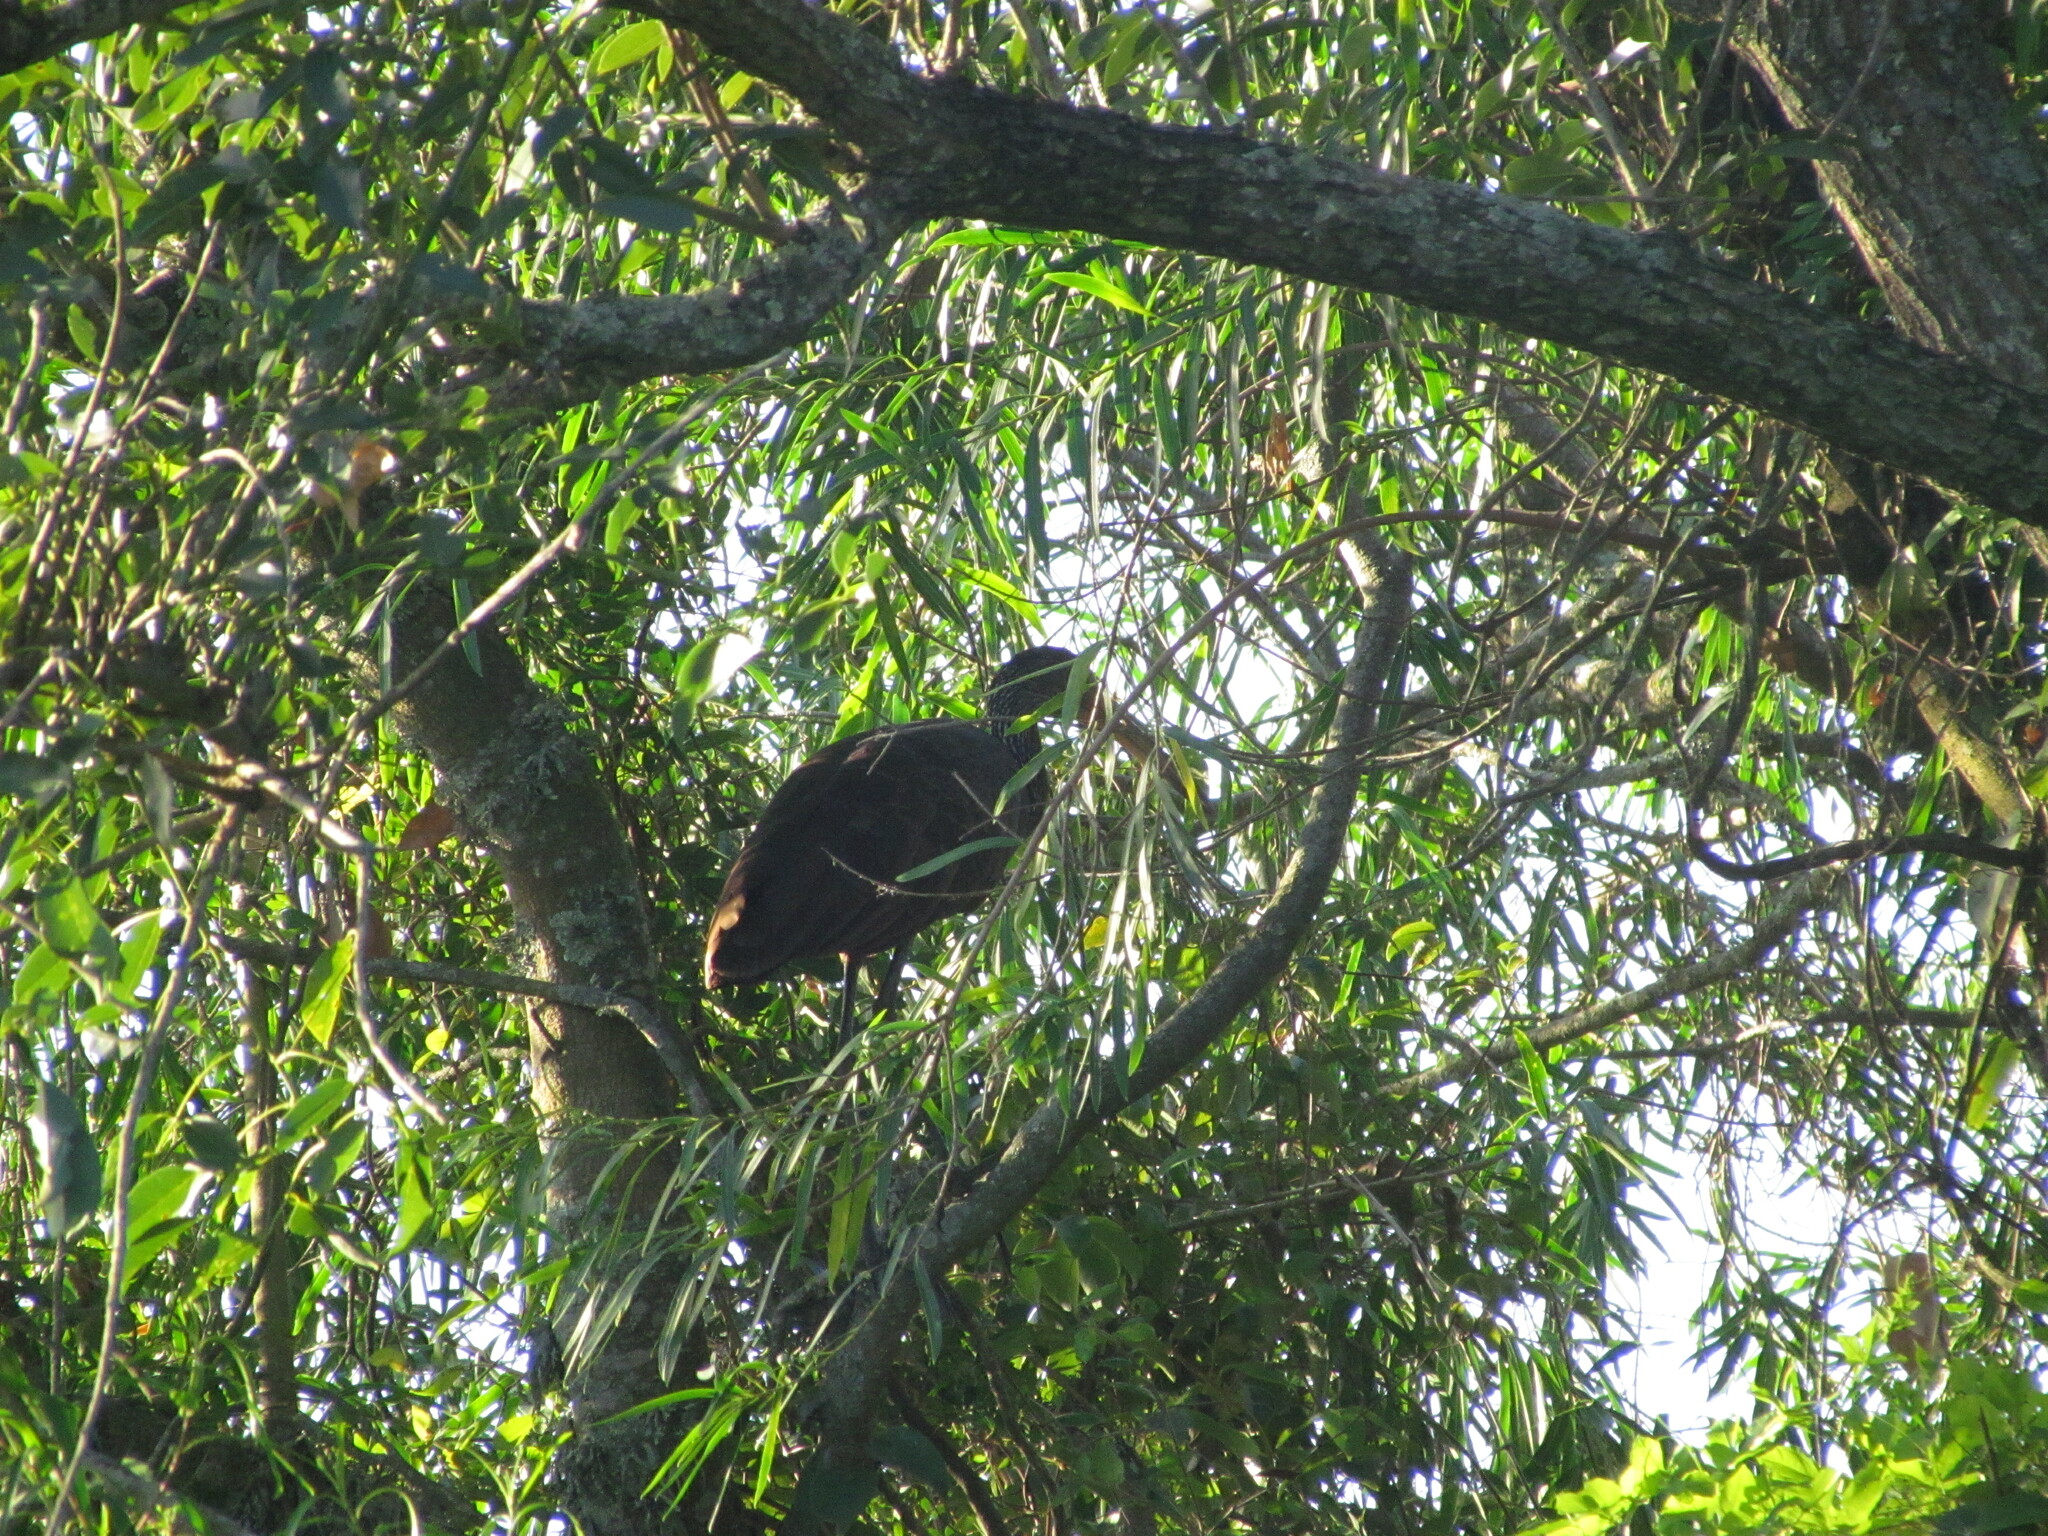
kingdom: Animalia
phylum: Chordata
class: Aves
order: Gruiformes
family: Aramidae
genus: Aramus
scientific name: Aramus guarauna
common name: Limpkin
